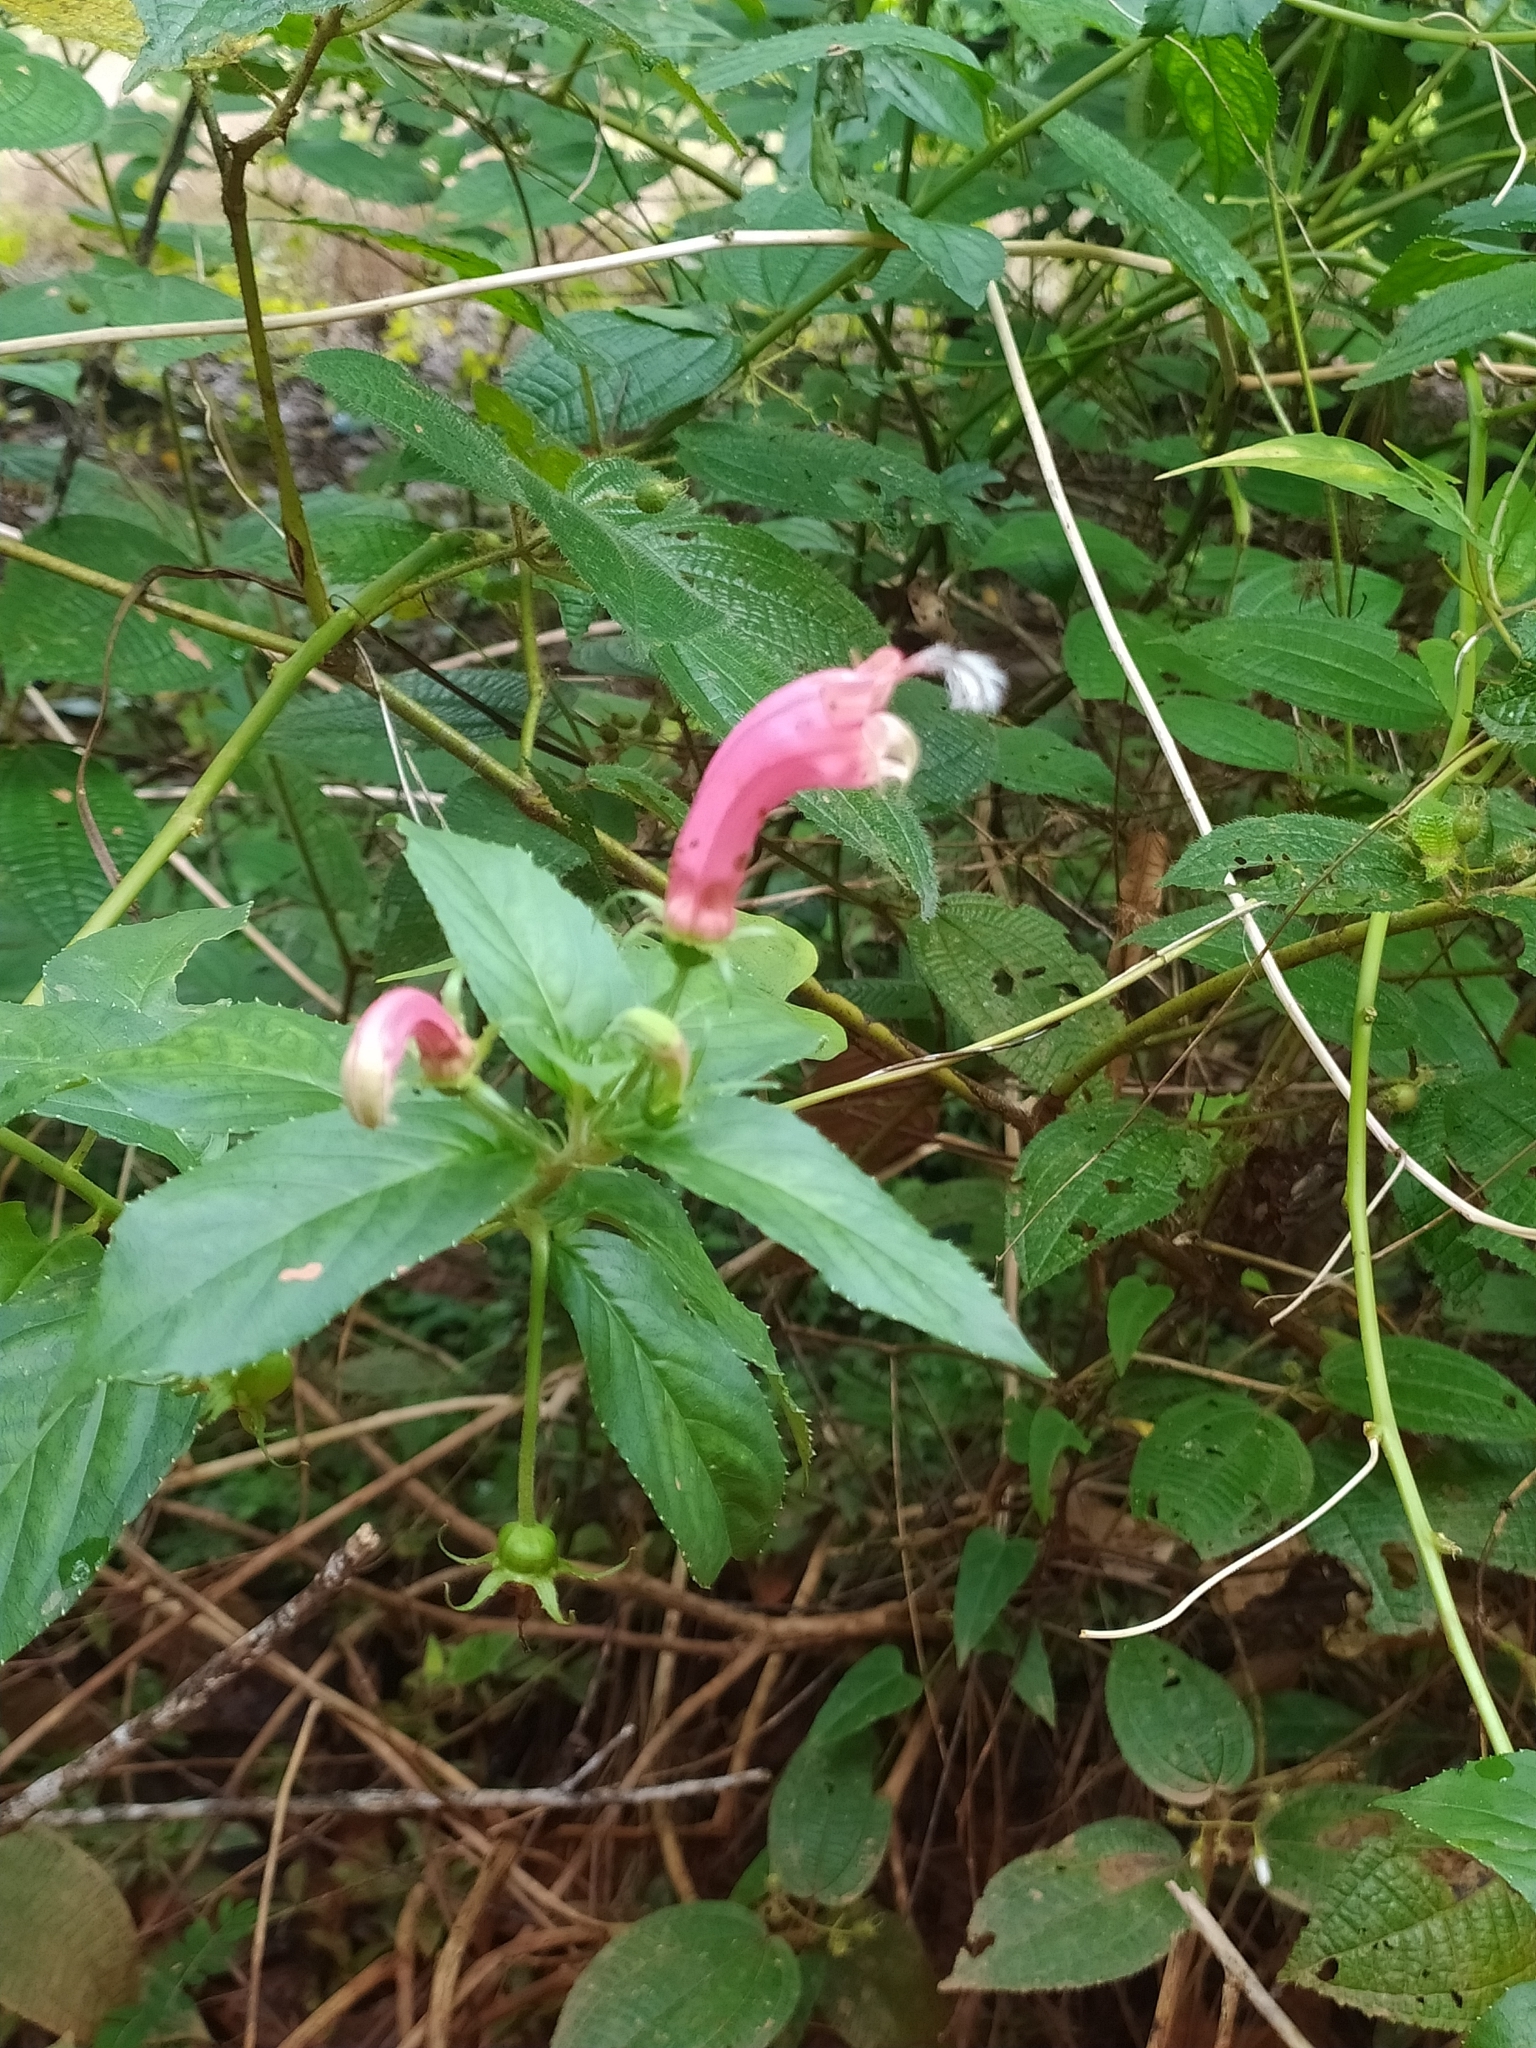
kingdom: Plantae
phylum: Tracheophyta
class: Magnoliopsida
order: Asterales
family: Campanulaceae
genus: Centropogon
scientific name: Centropogon cornutus
